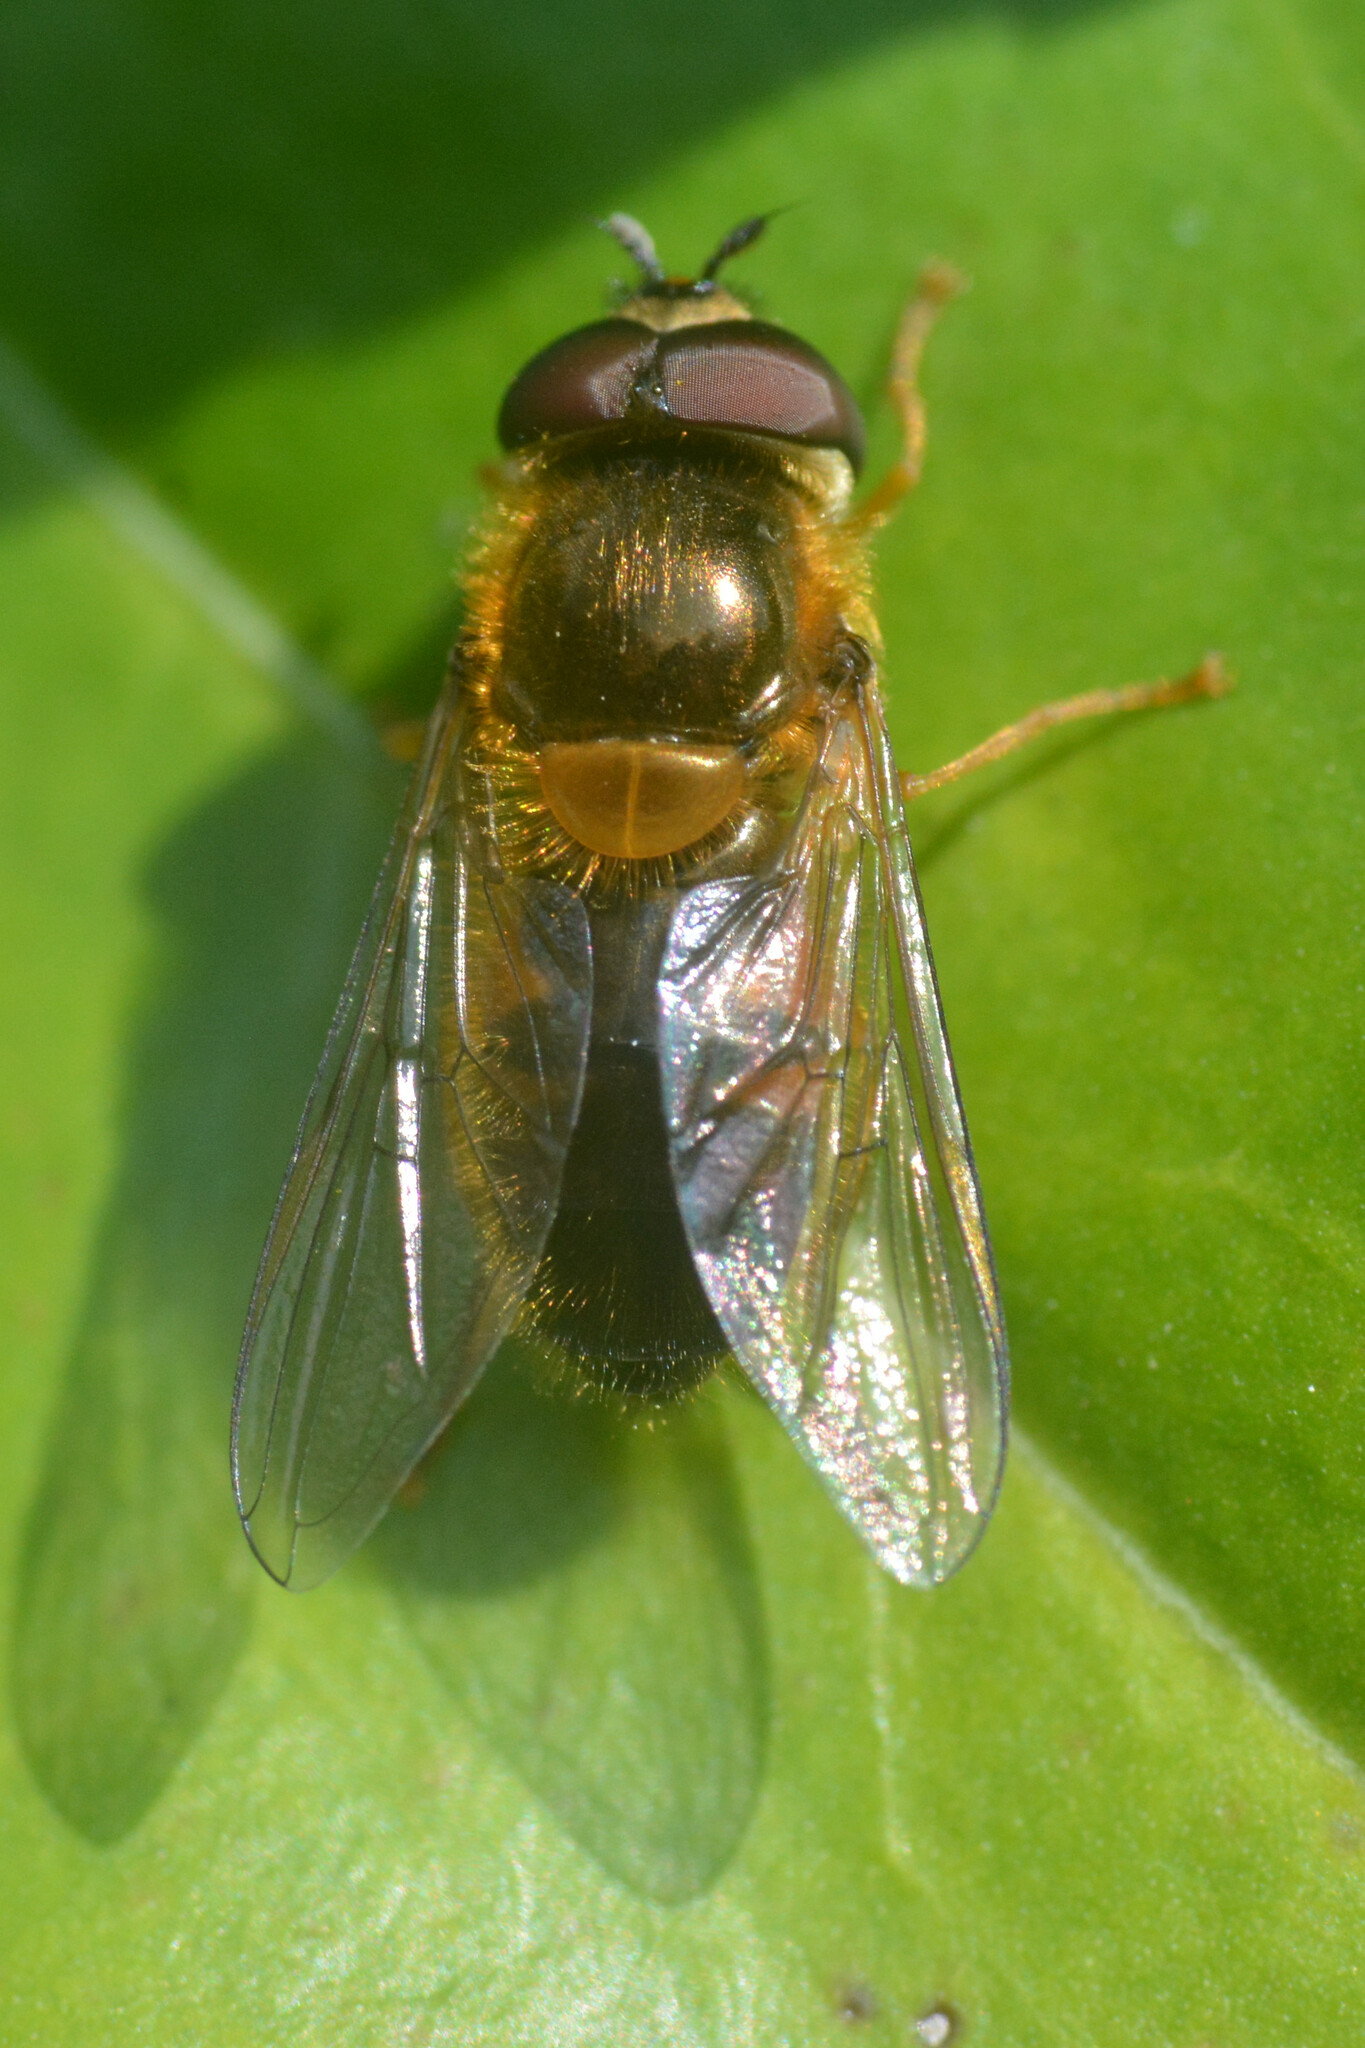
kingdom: Animalia
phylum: Arthropoda
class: Insecta
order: Diptera
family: Syrphidae
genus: Epistrophe
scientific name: Epistrophe eligans
